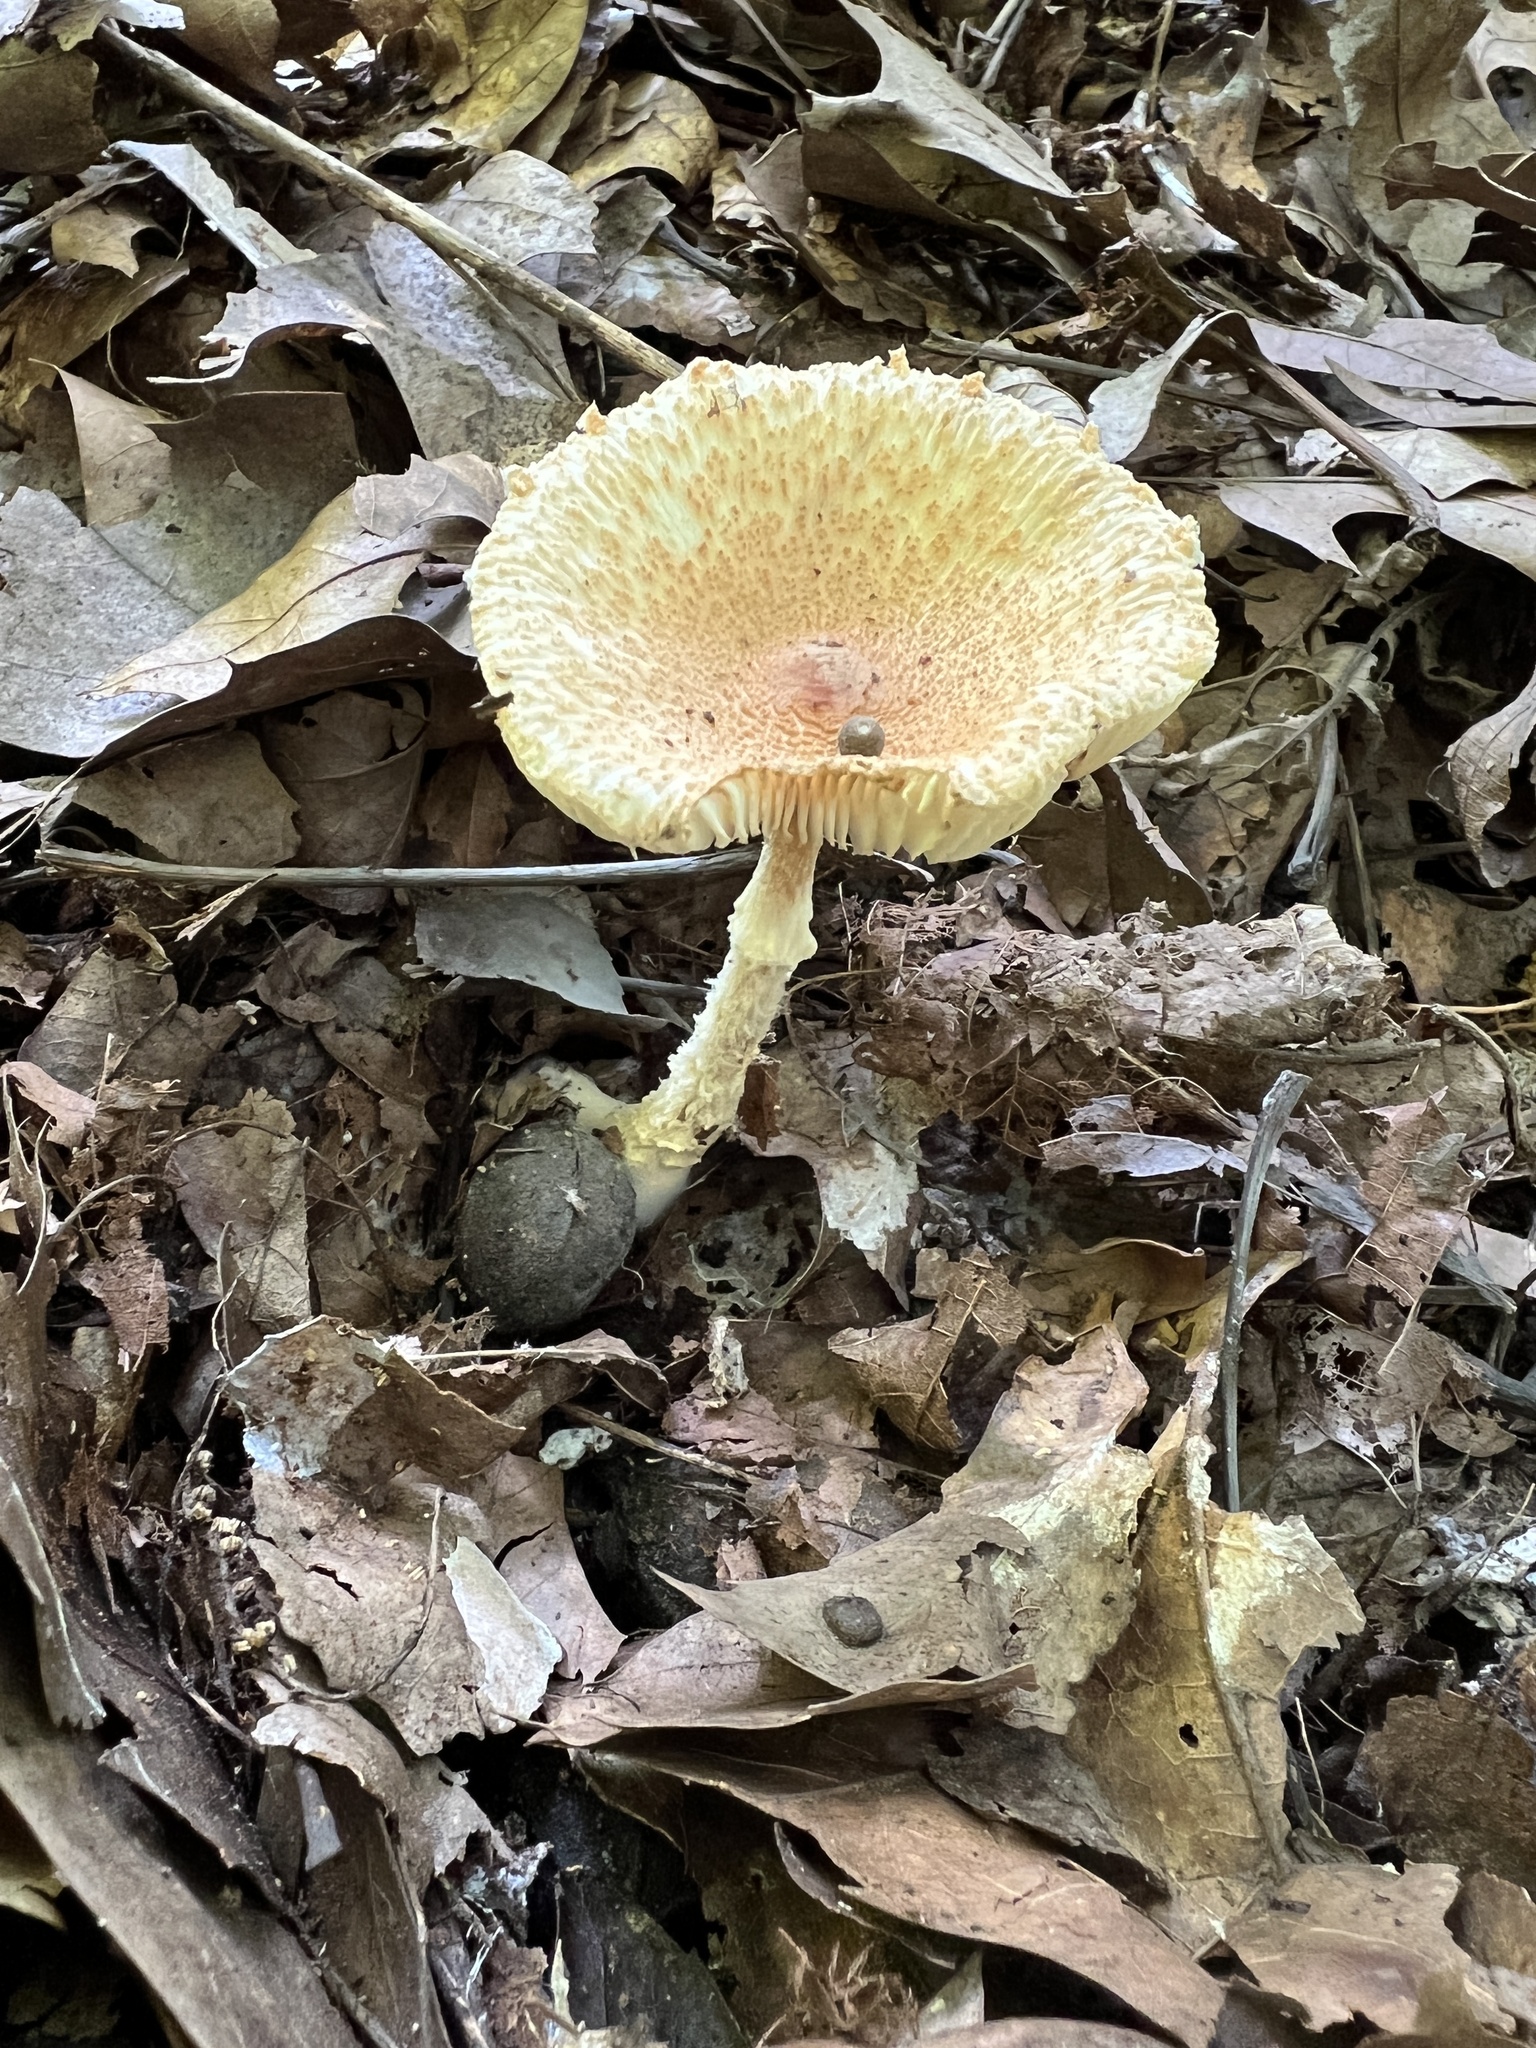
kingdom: Fungi
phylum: Basidiomycota
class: Agaricomycetes
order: Agaricales
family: Agaricaceae
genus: Lepiota
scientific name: Lepiota clypeolaria
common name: Shield dapperling
